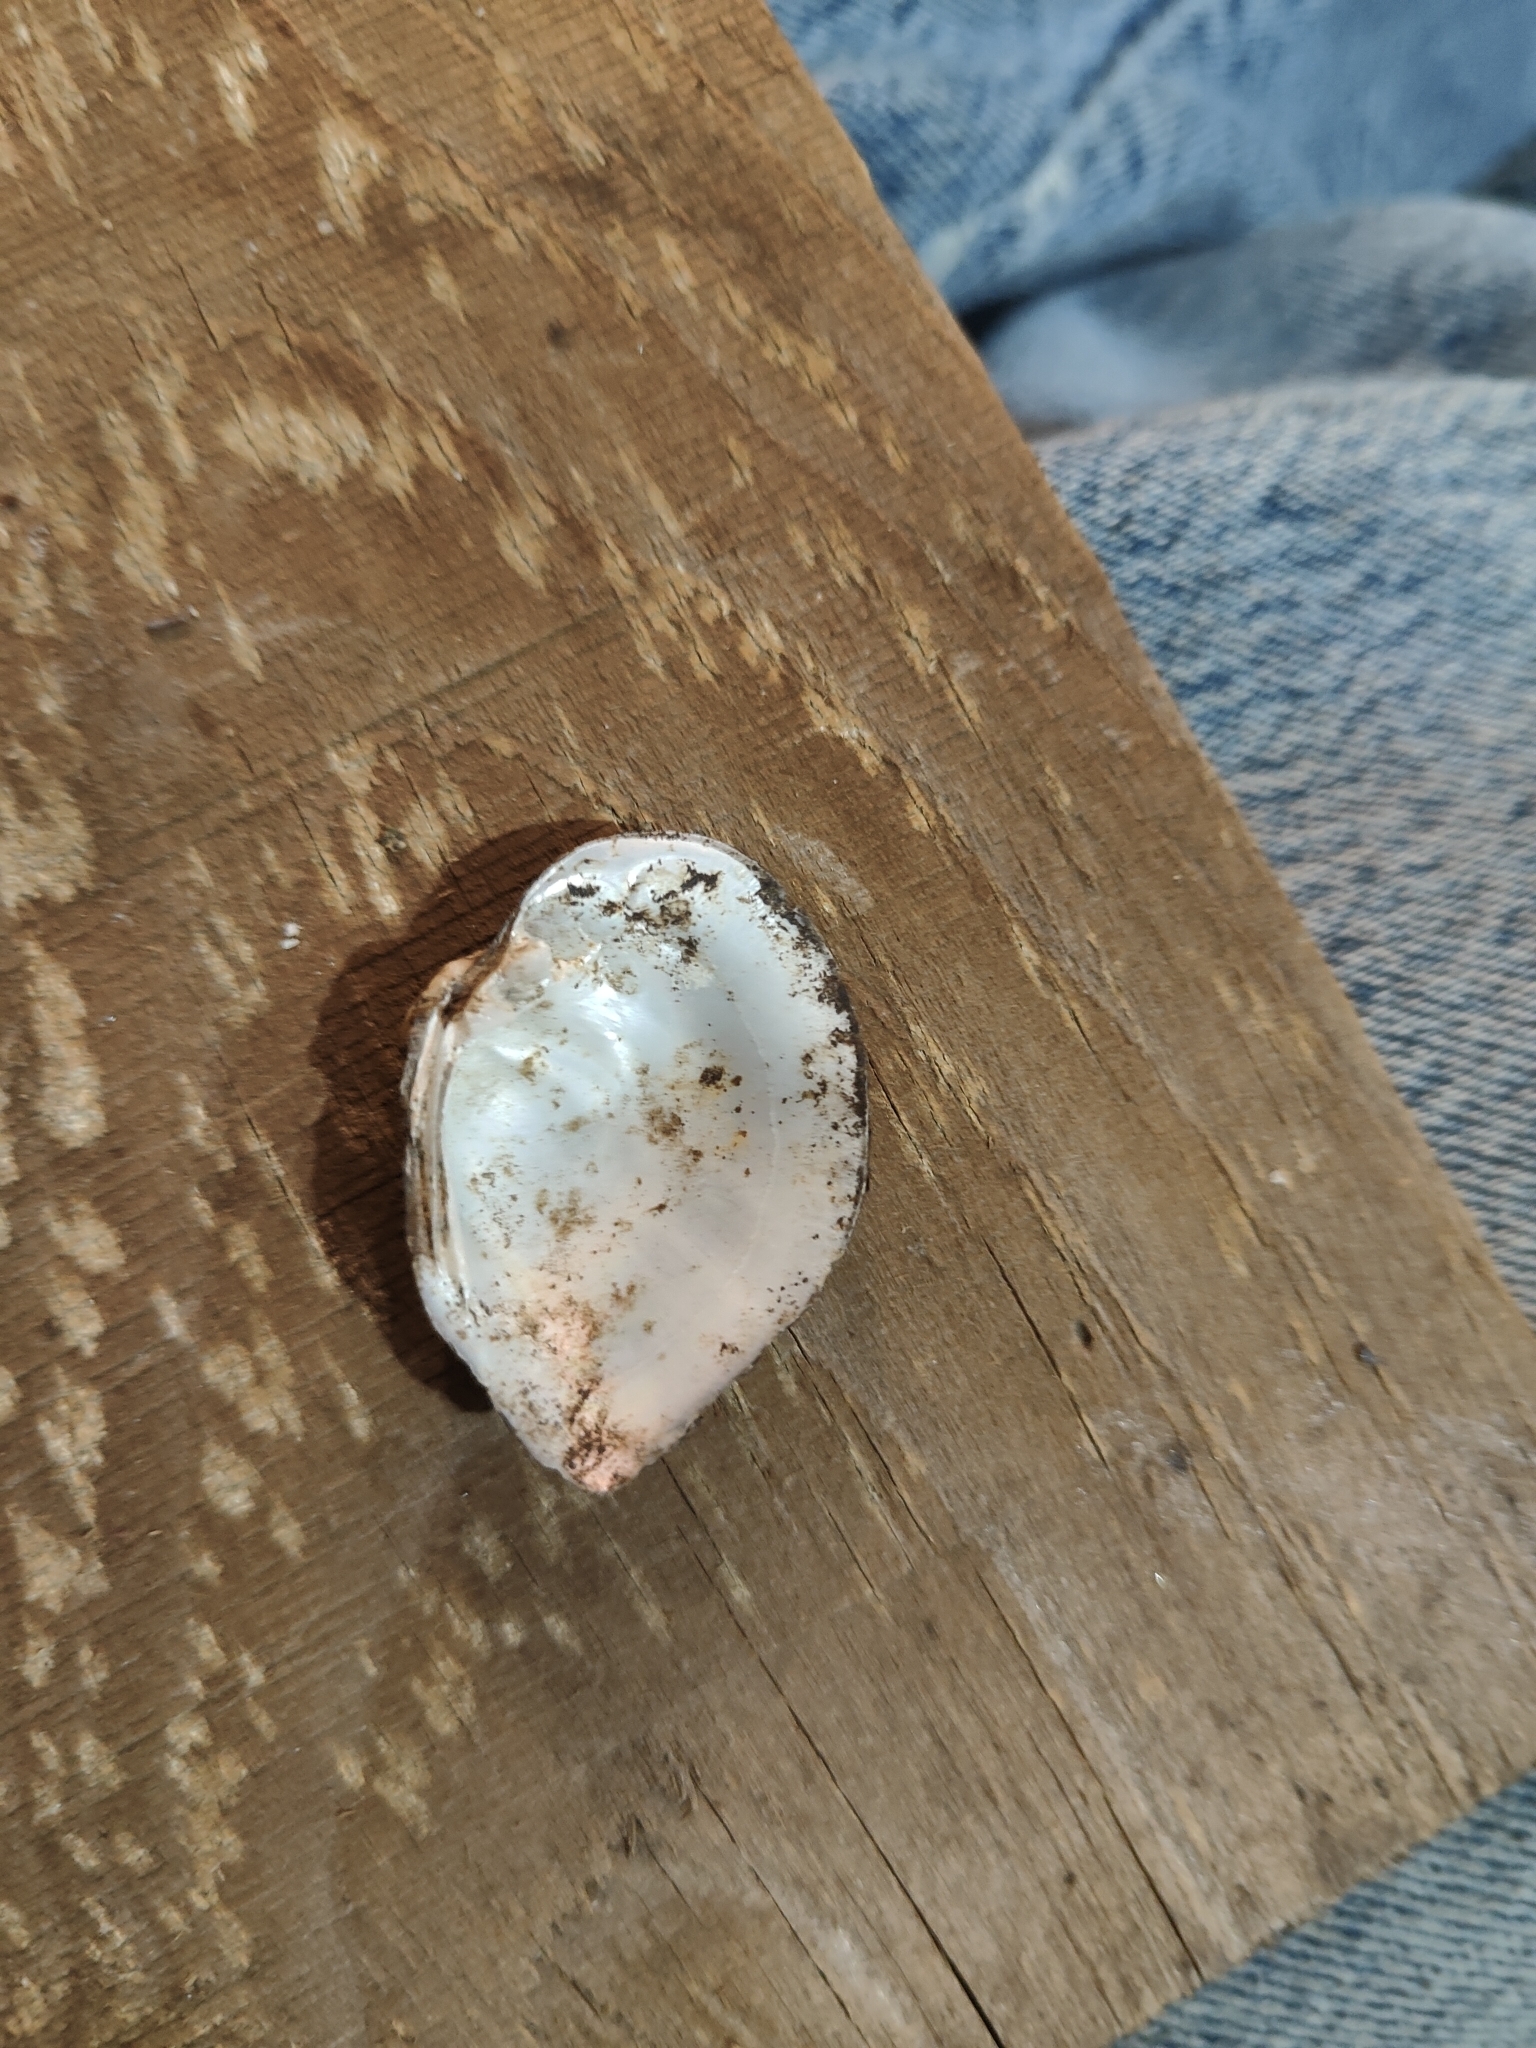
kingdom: Animalia
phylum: Mollusca
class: Bivalvia
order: Unionida
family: Unionidae
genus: Truncilla
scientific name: Truncilla truncata
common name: Deertoe
